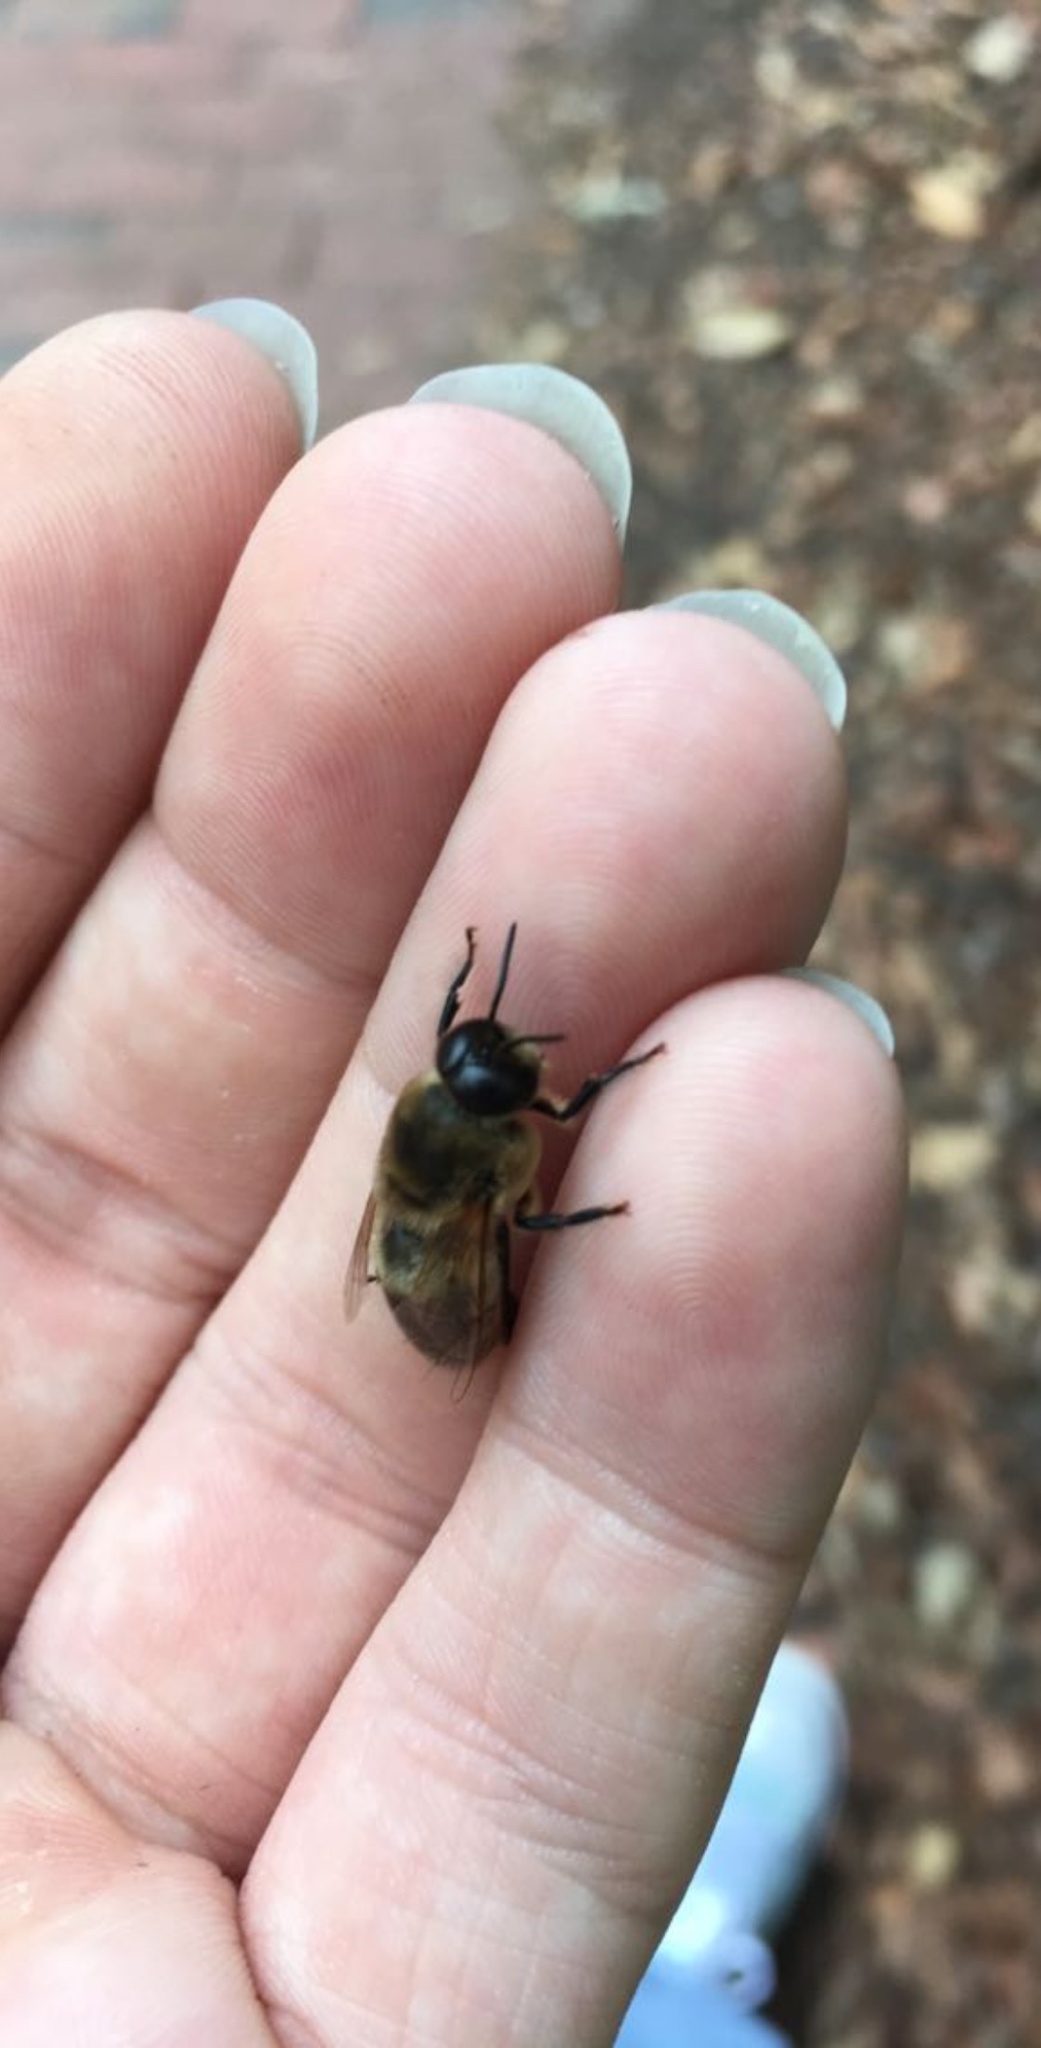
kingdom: Animalia
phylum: Arthropoda
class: Insecta
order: Hymenoptera
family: Apidae
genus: Apis
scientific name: Apis mellifera
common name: Honey bee
